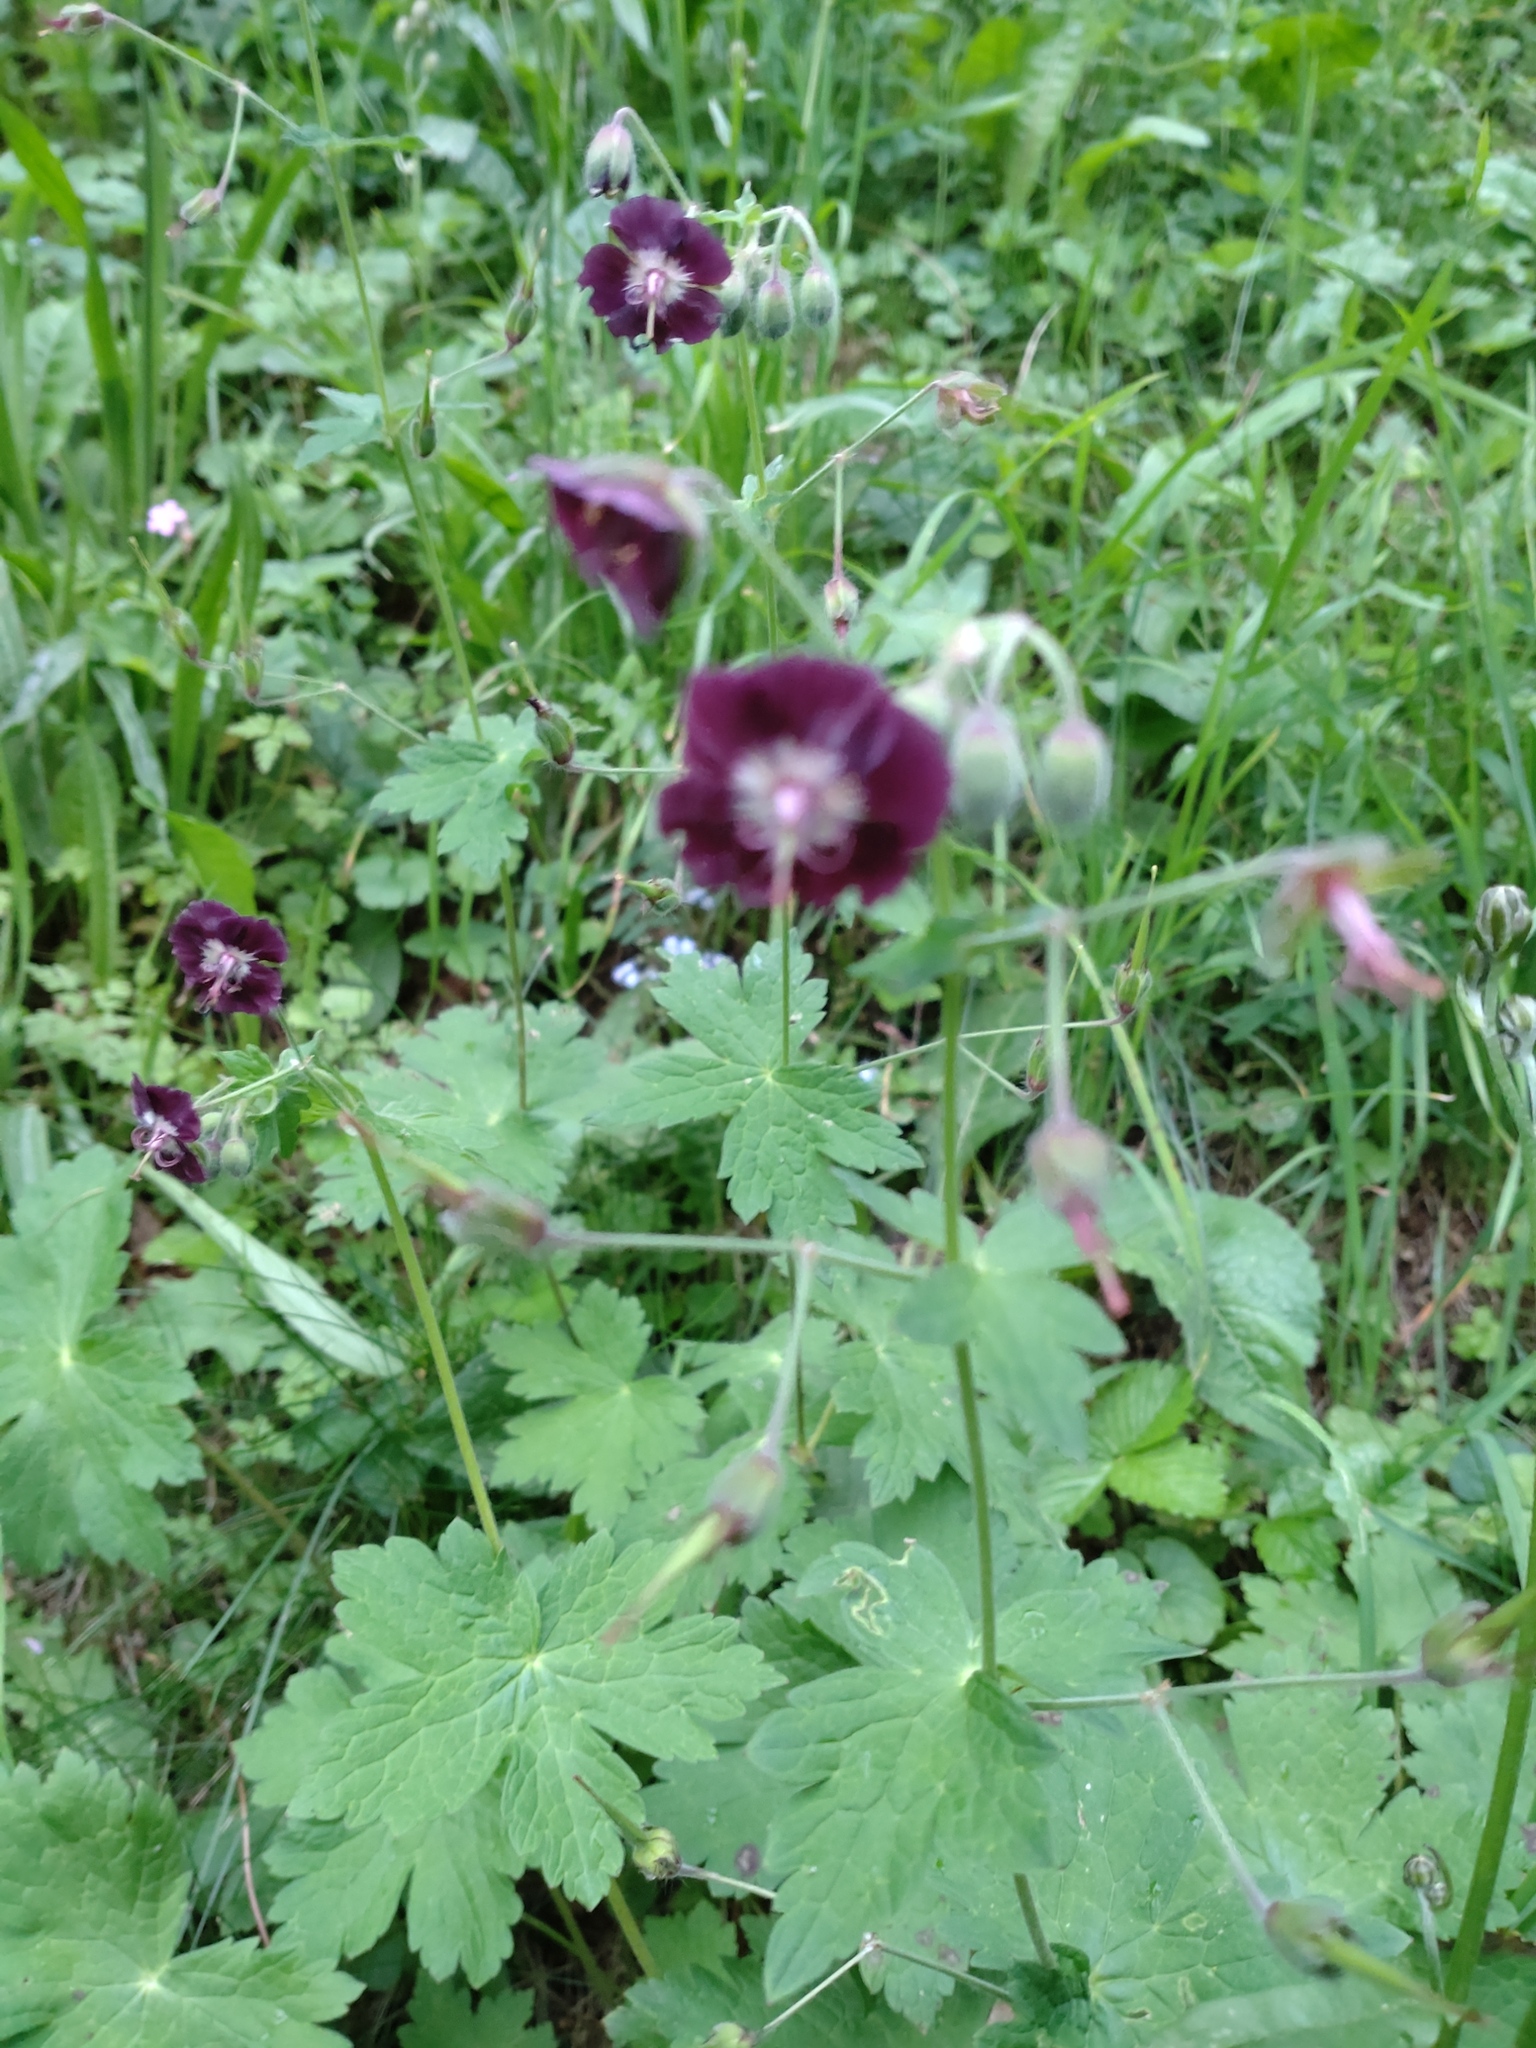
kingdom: Plantae
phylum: Tracheophyta
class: Magnoliopsida
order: Geraniales
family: Geraniaceae
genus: Geranium
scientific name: Geranium phaeum
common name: Dusky crane's-bill
